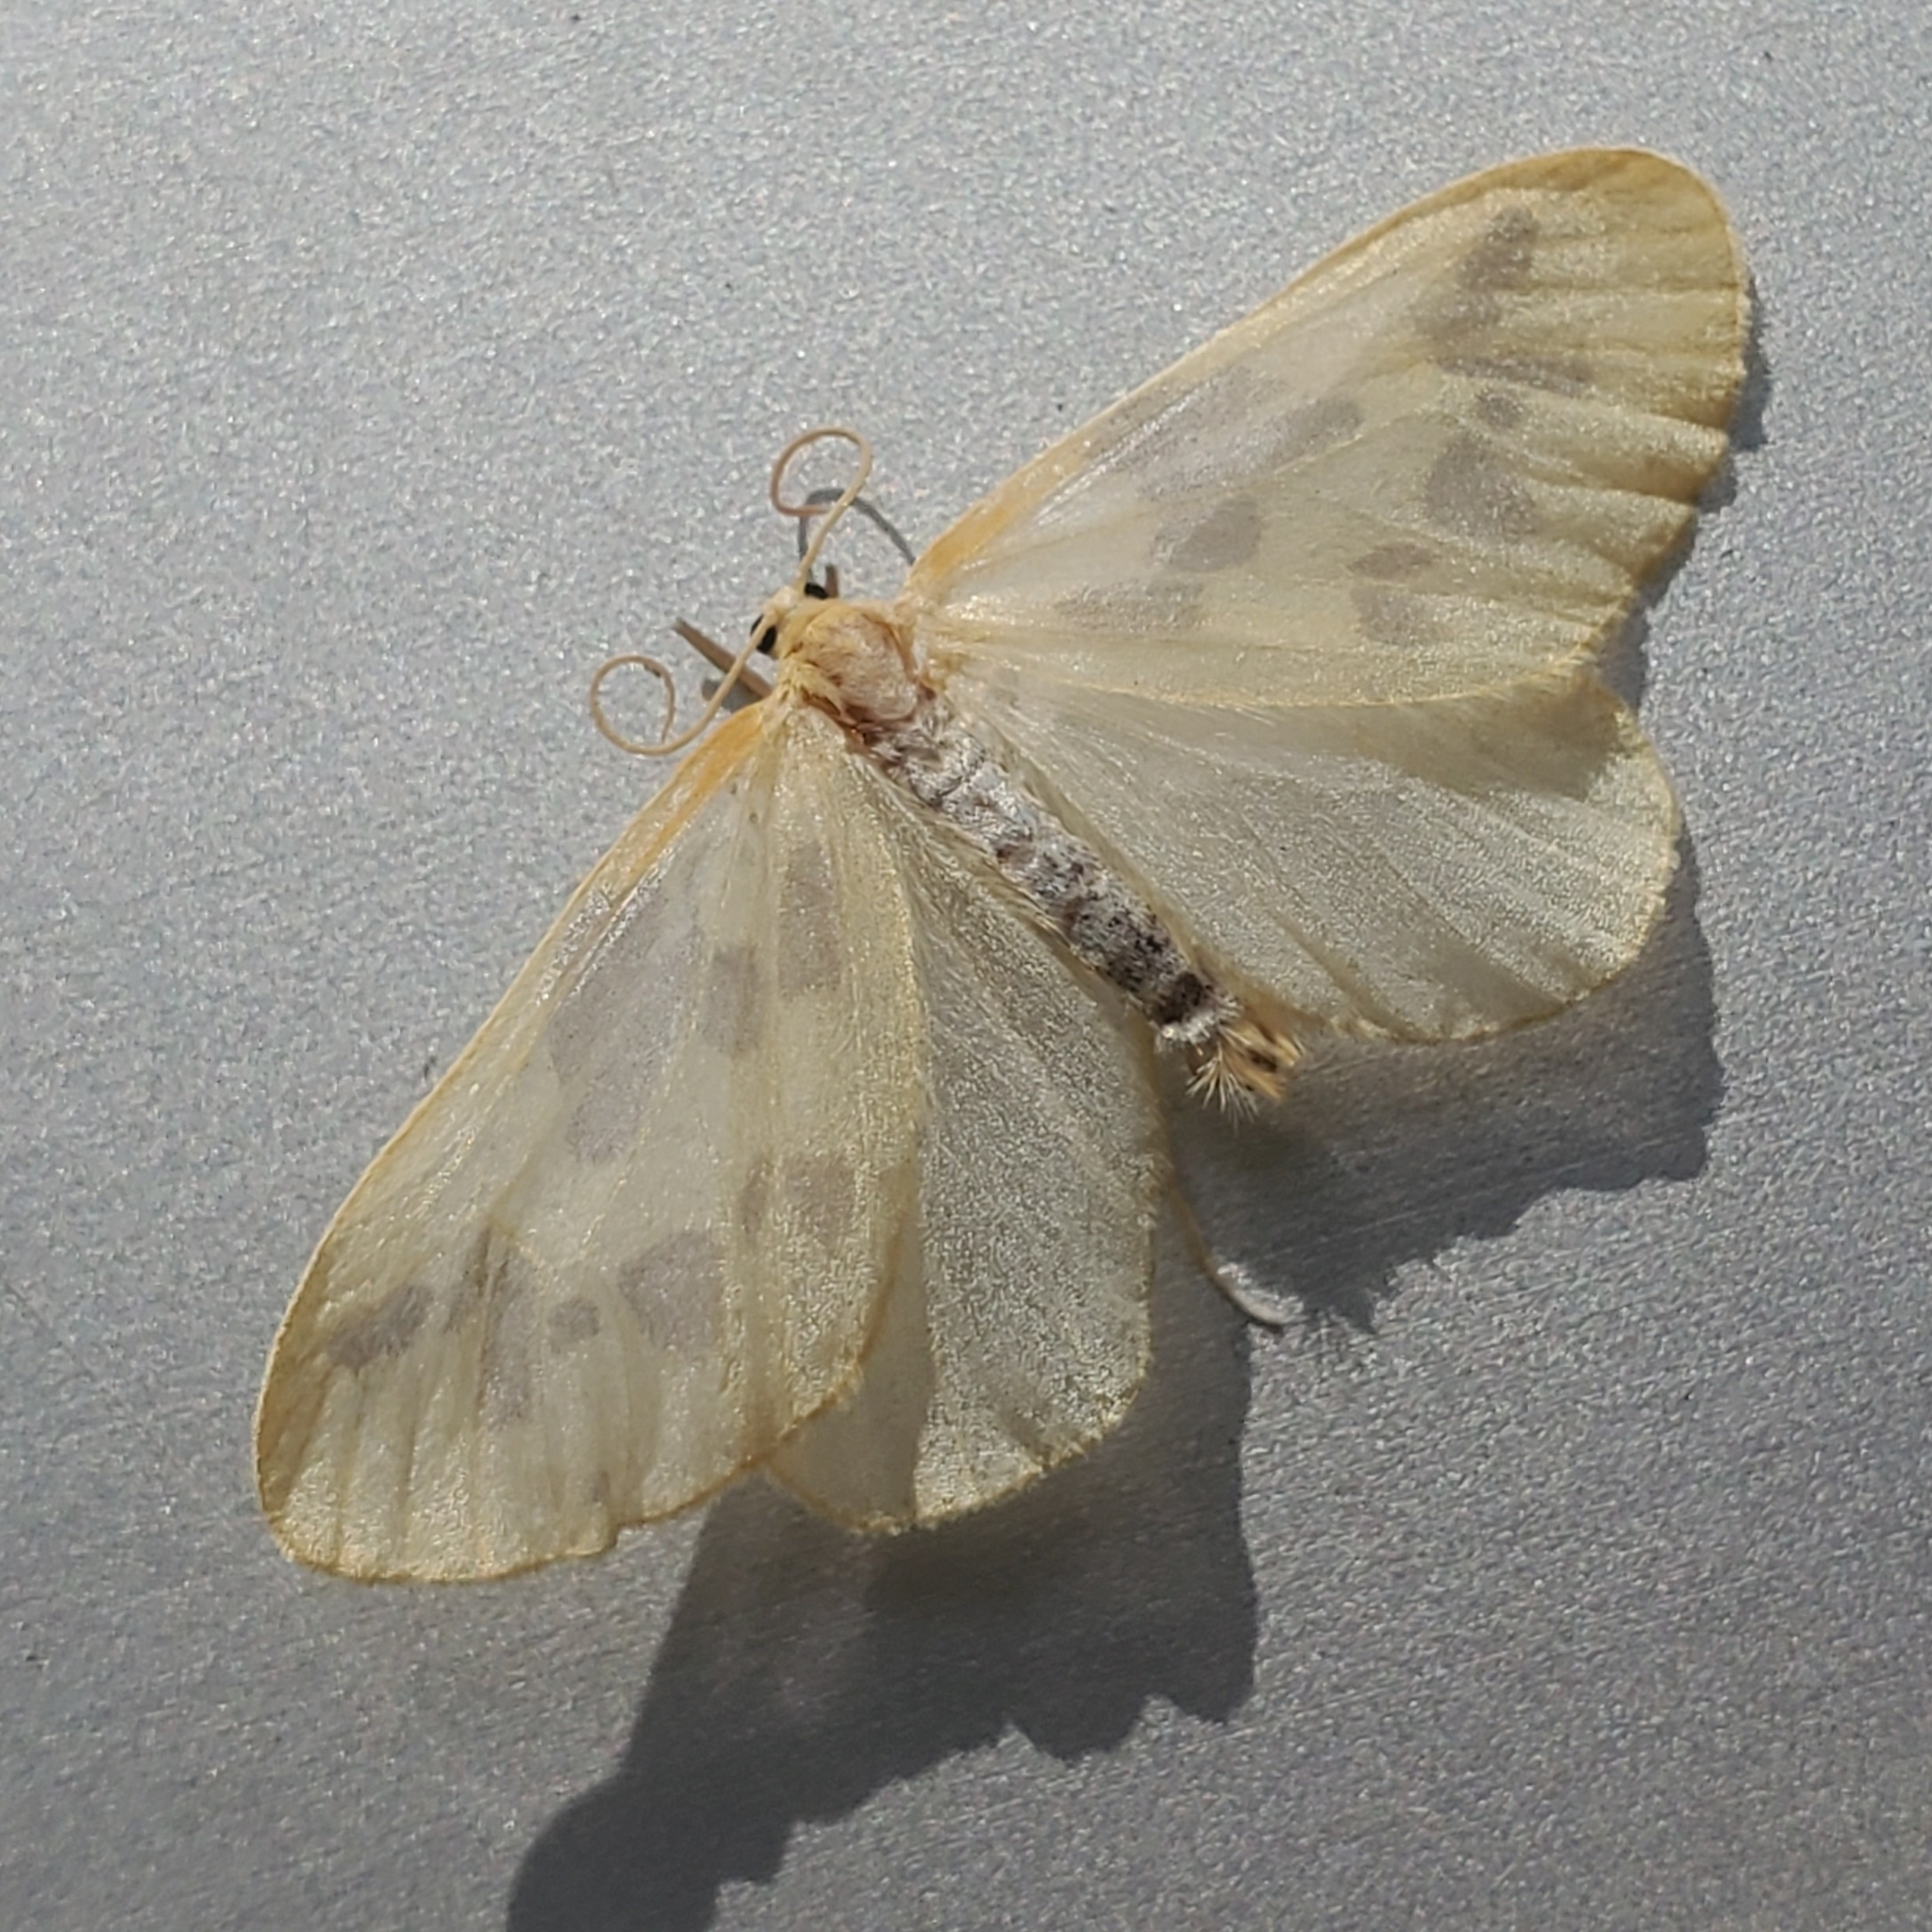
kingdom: Animalia
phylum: Arthropoda
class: Insecta
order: Lepidoptera
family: Geometridae
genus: Eubaphe
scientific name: Eubaphe mendica
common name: Beggar
